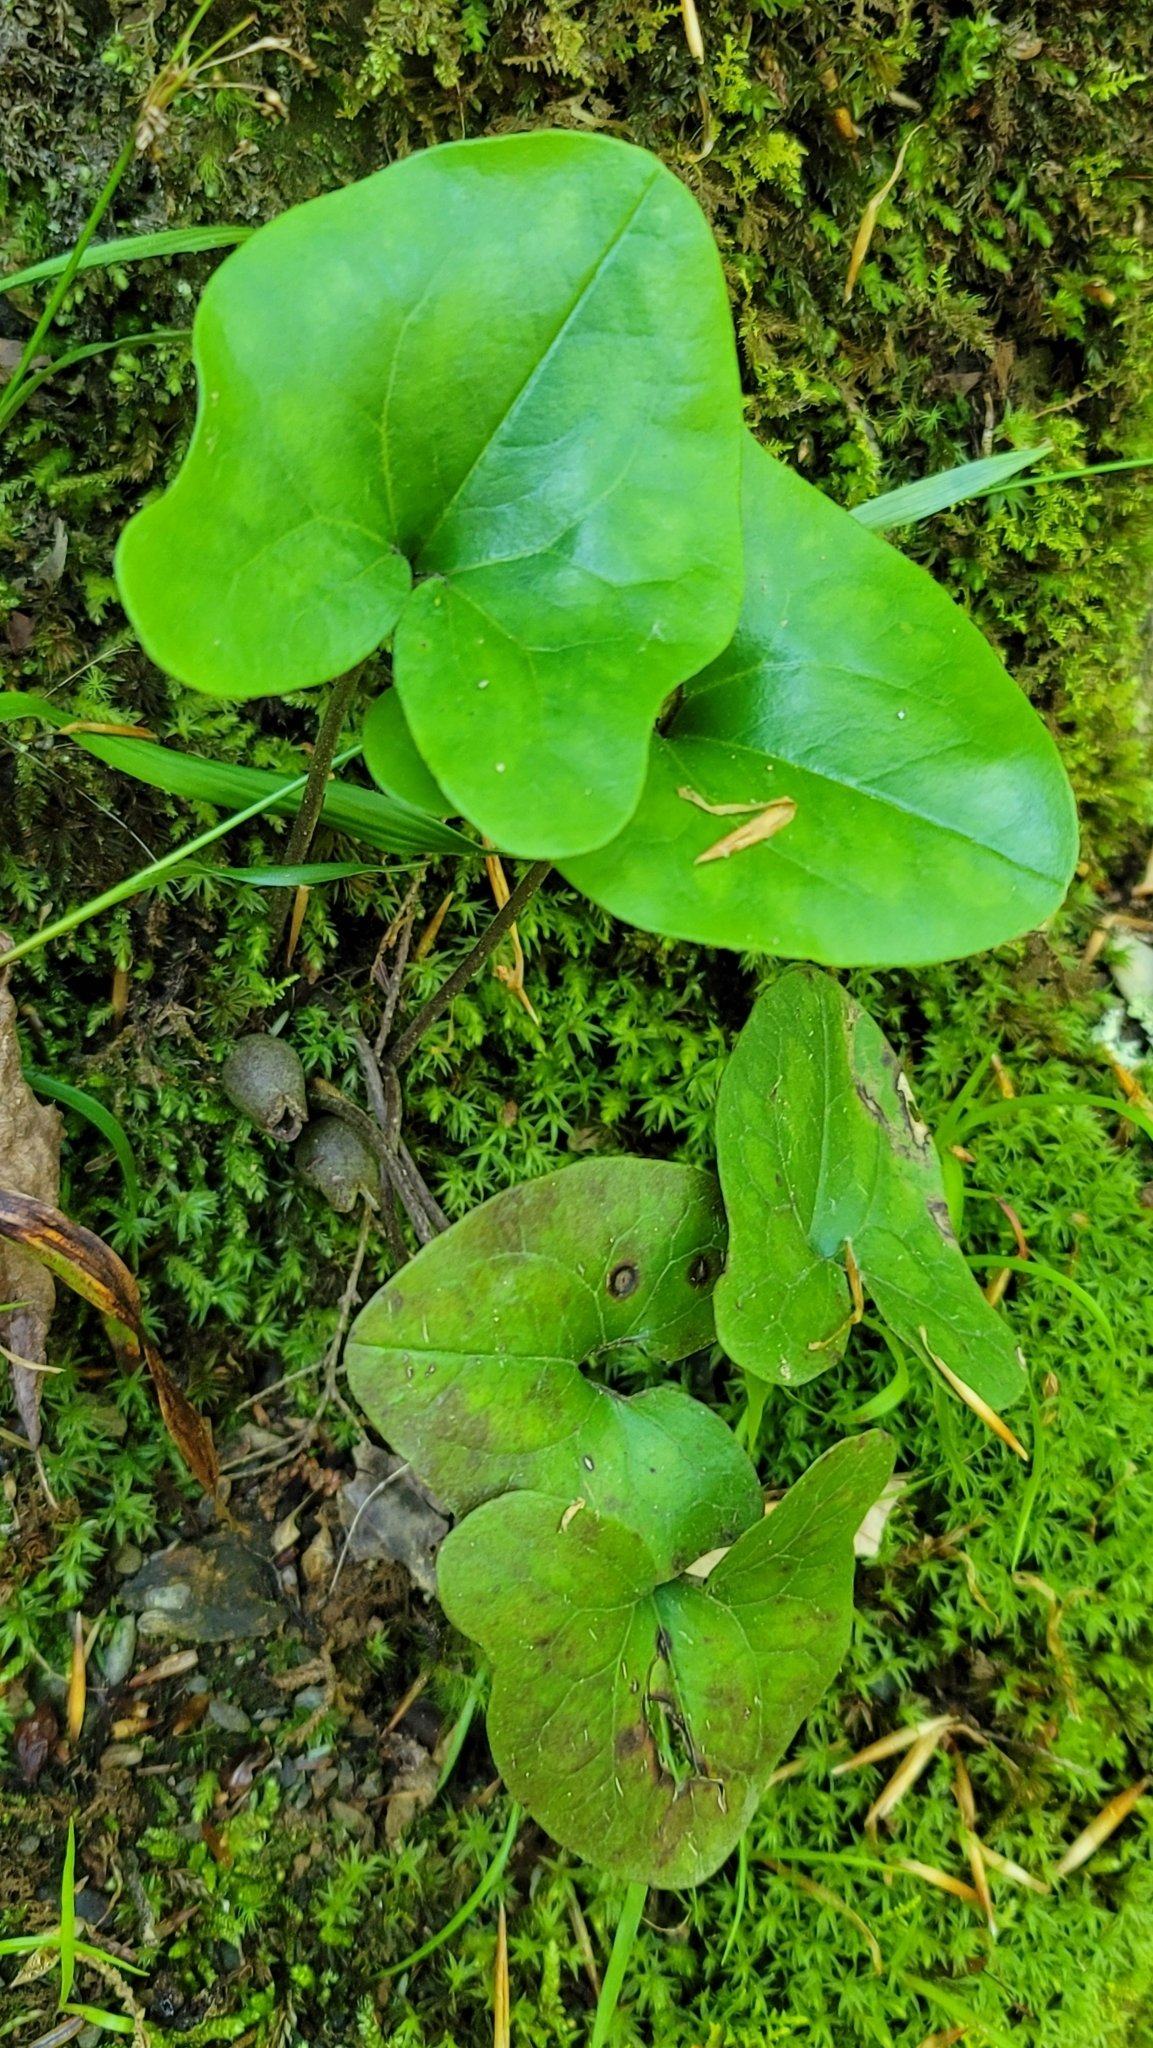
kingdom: Plantae
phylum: Tracheophyta
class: Magnoliopsida
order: Piperales
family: Aristolochiaceae
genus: Hexastylis
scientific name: Hexastylis arifolia
